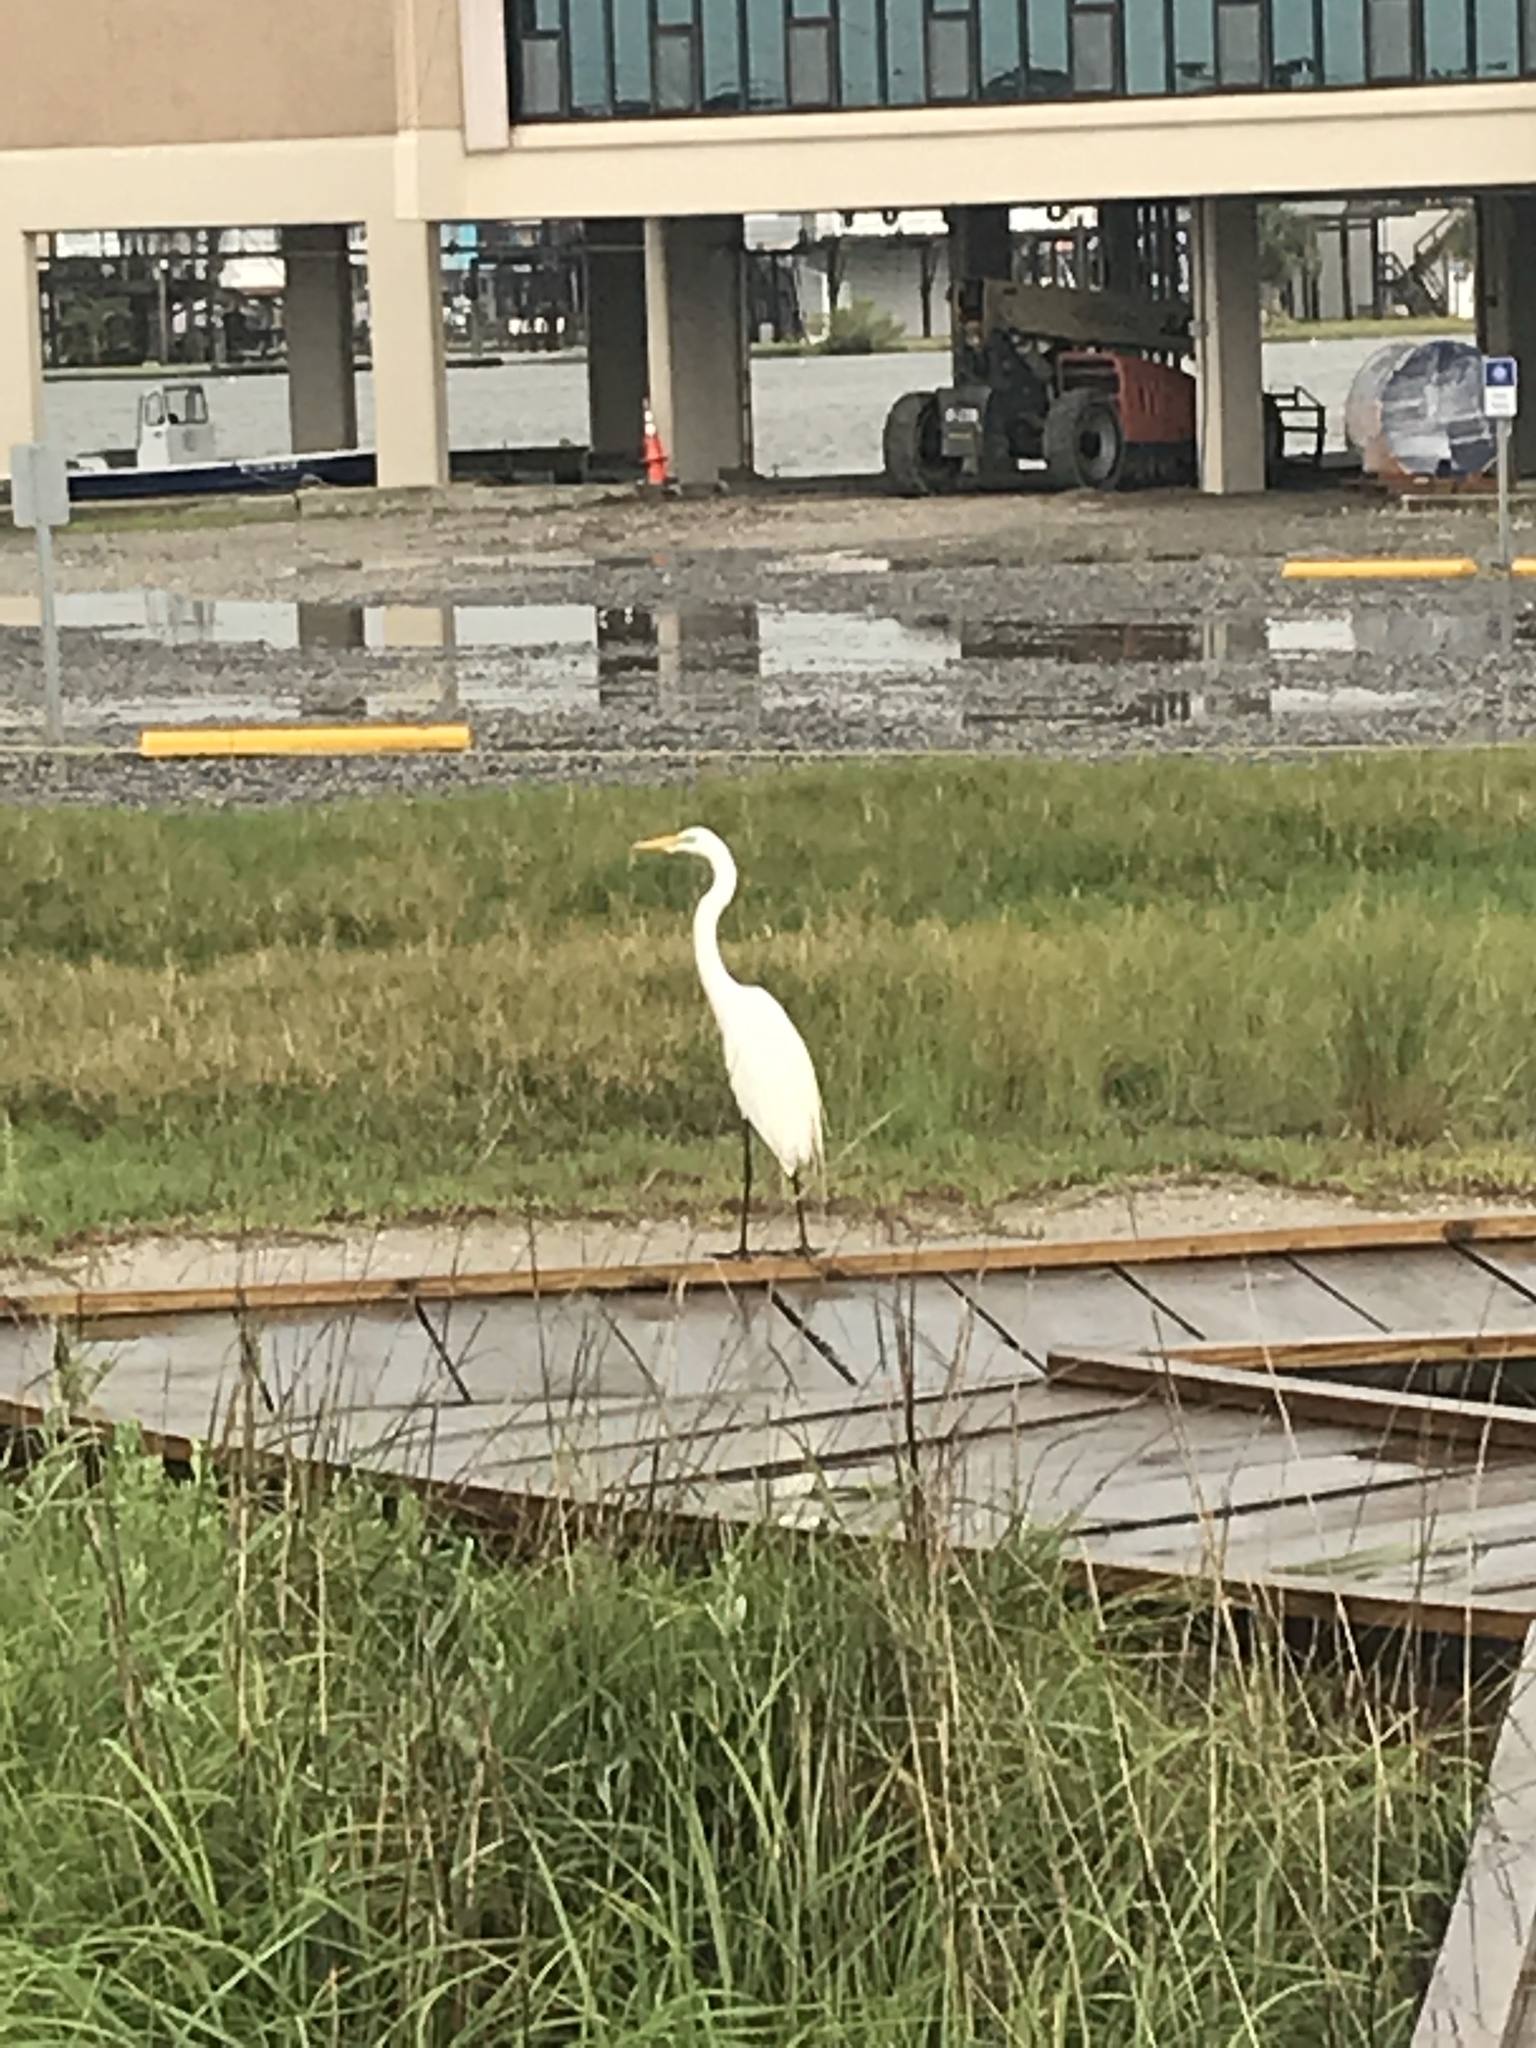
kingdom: Animalia
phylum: Chordata
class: Aves
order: Pelecaniformes
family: Ardeidae
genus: Ardea
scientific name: Ardea alba
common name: Great egret
